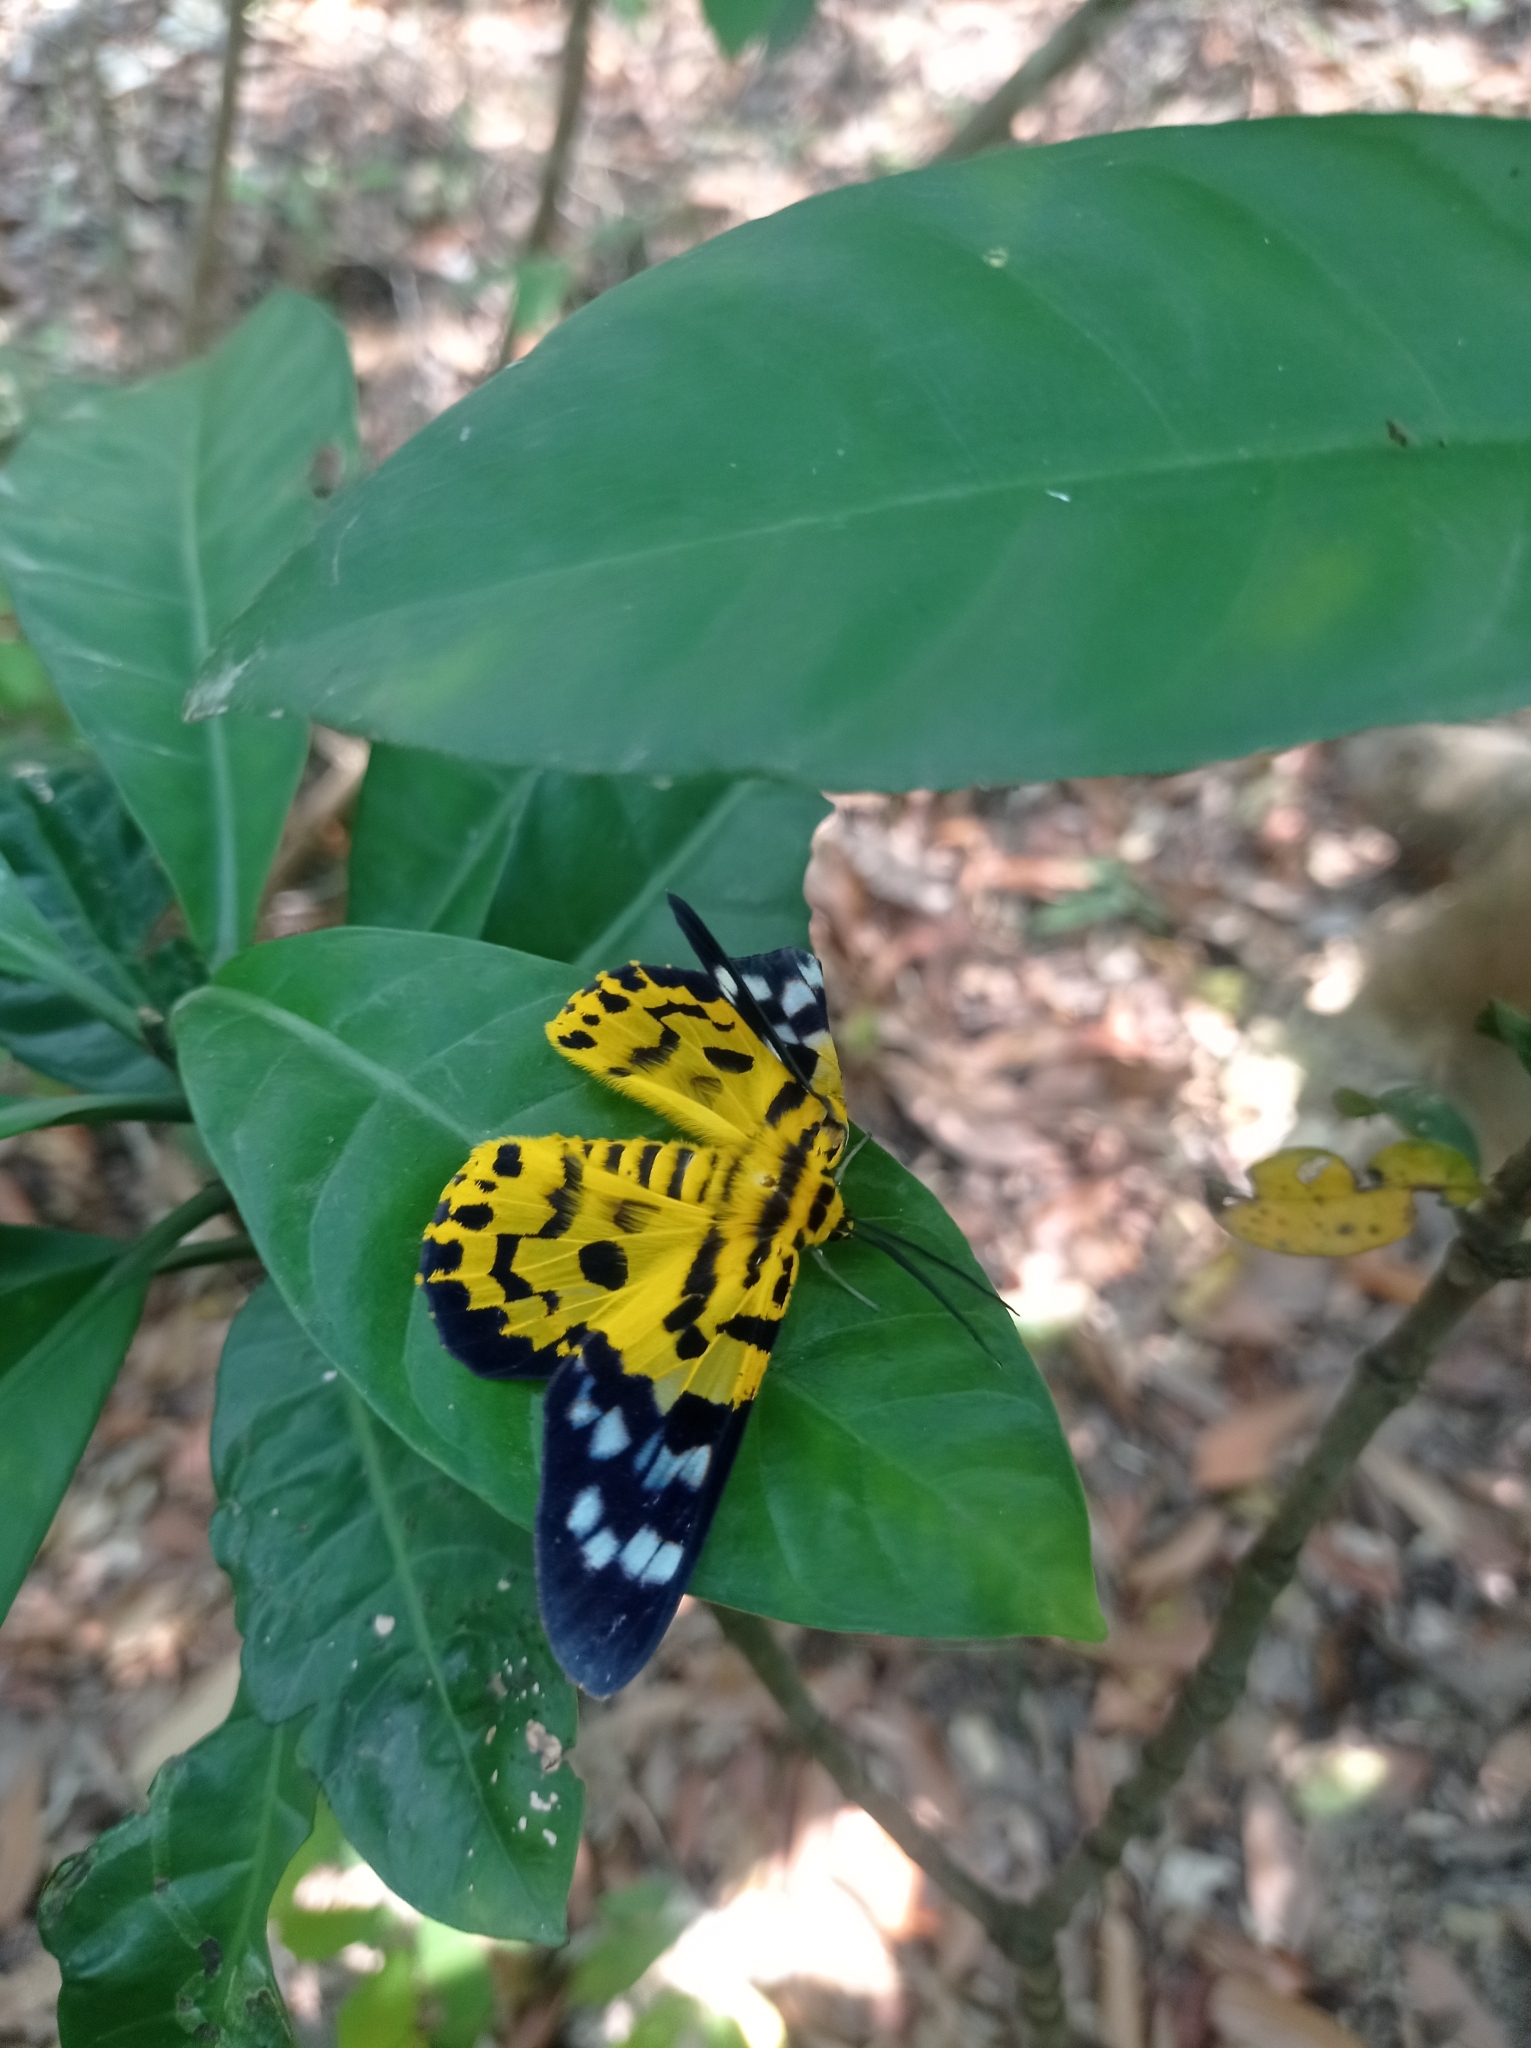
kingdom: Animalia
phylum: Arthropoda
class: Insecta
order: Lepidoptera
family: Geometridae
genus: Dysphania
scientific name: Dysphania militaris
